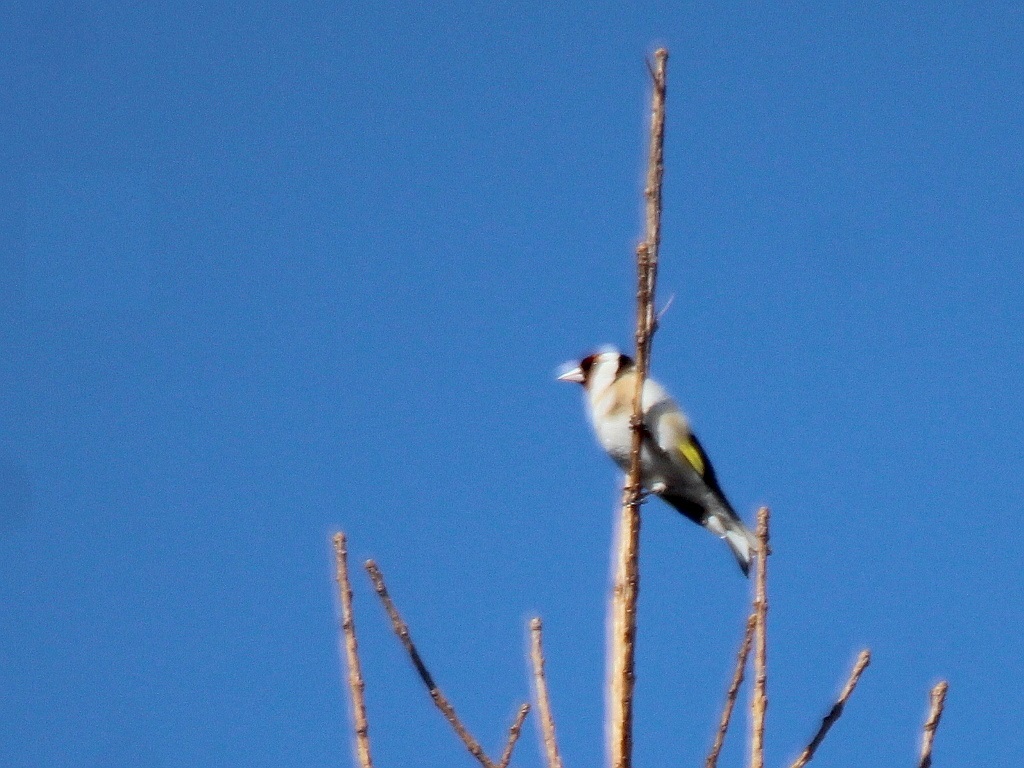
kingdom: Animalia
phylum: Chordata
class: Aves
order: Passeriformes
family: Fringillidae
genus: Carduelis
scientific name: Carduelis carduelis
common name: European goldfinch
